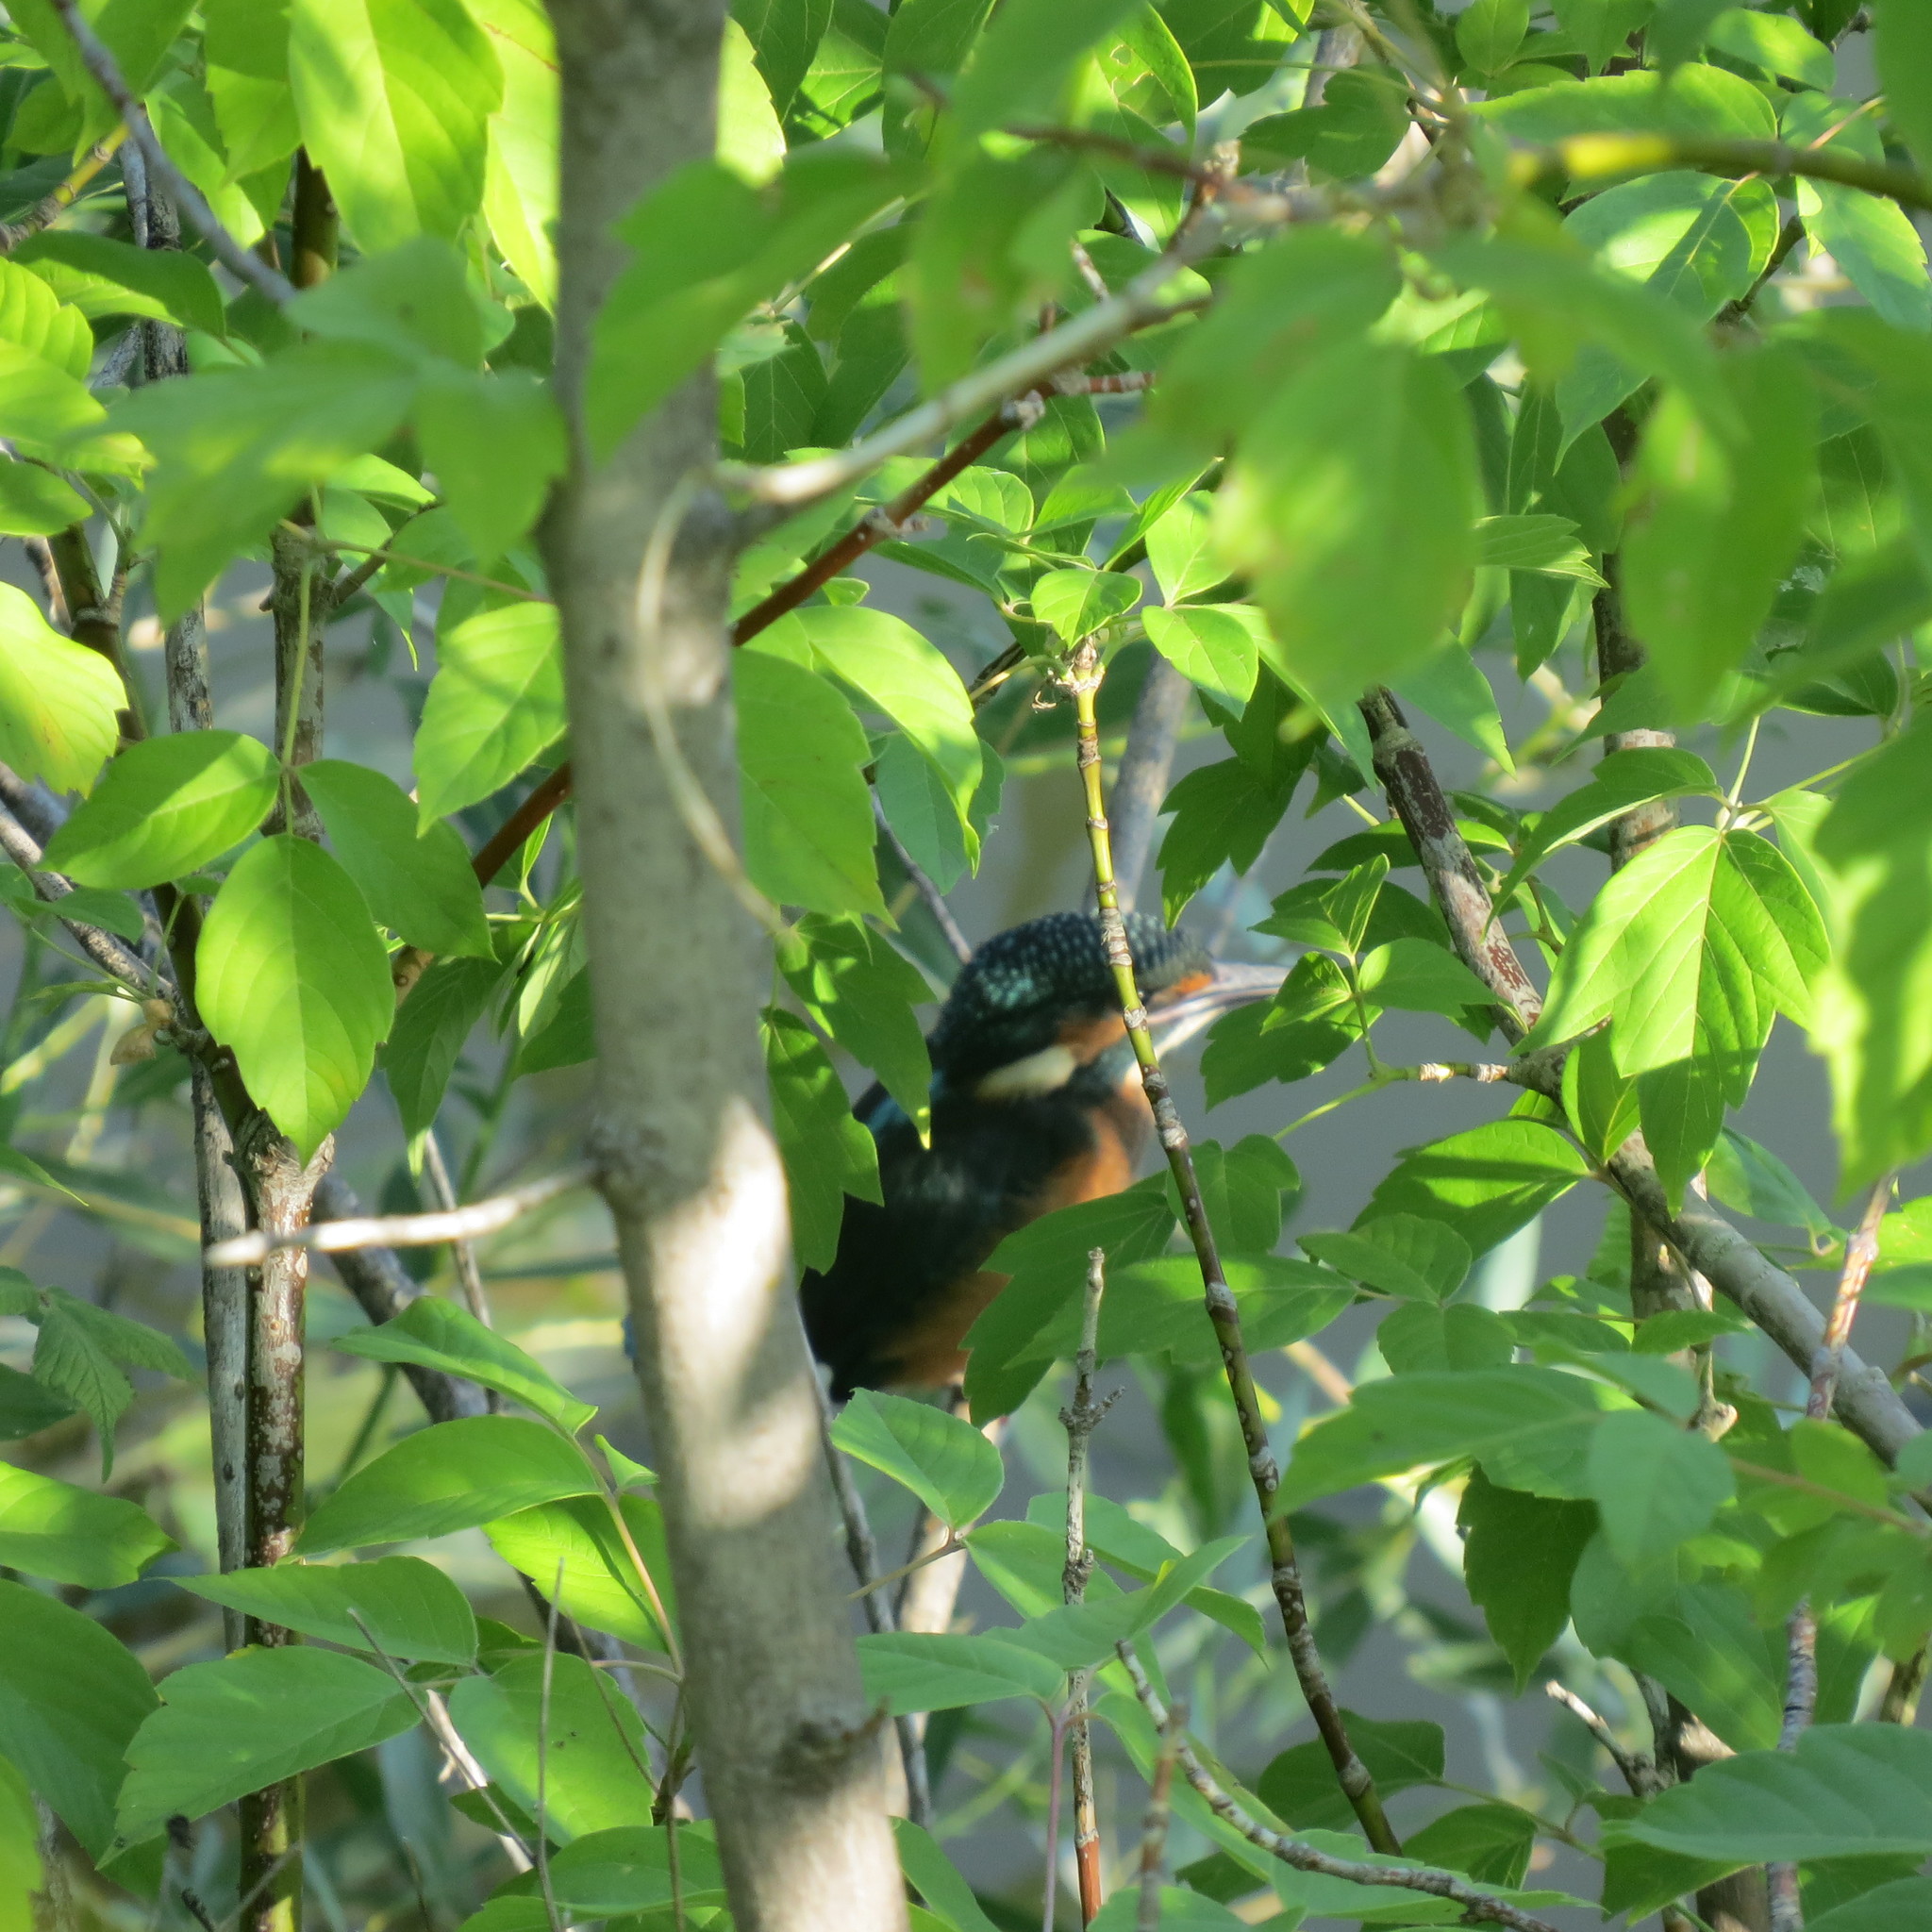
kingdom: Animalia
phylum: Chordata
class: Aves
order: Coraciiformes
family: Alcedinidae
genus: Alcedo
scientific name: Alcedo atthis
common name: Common kingfisher
